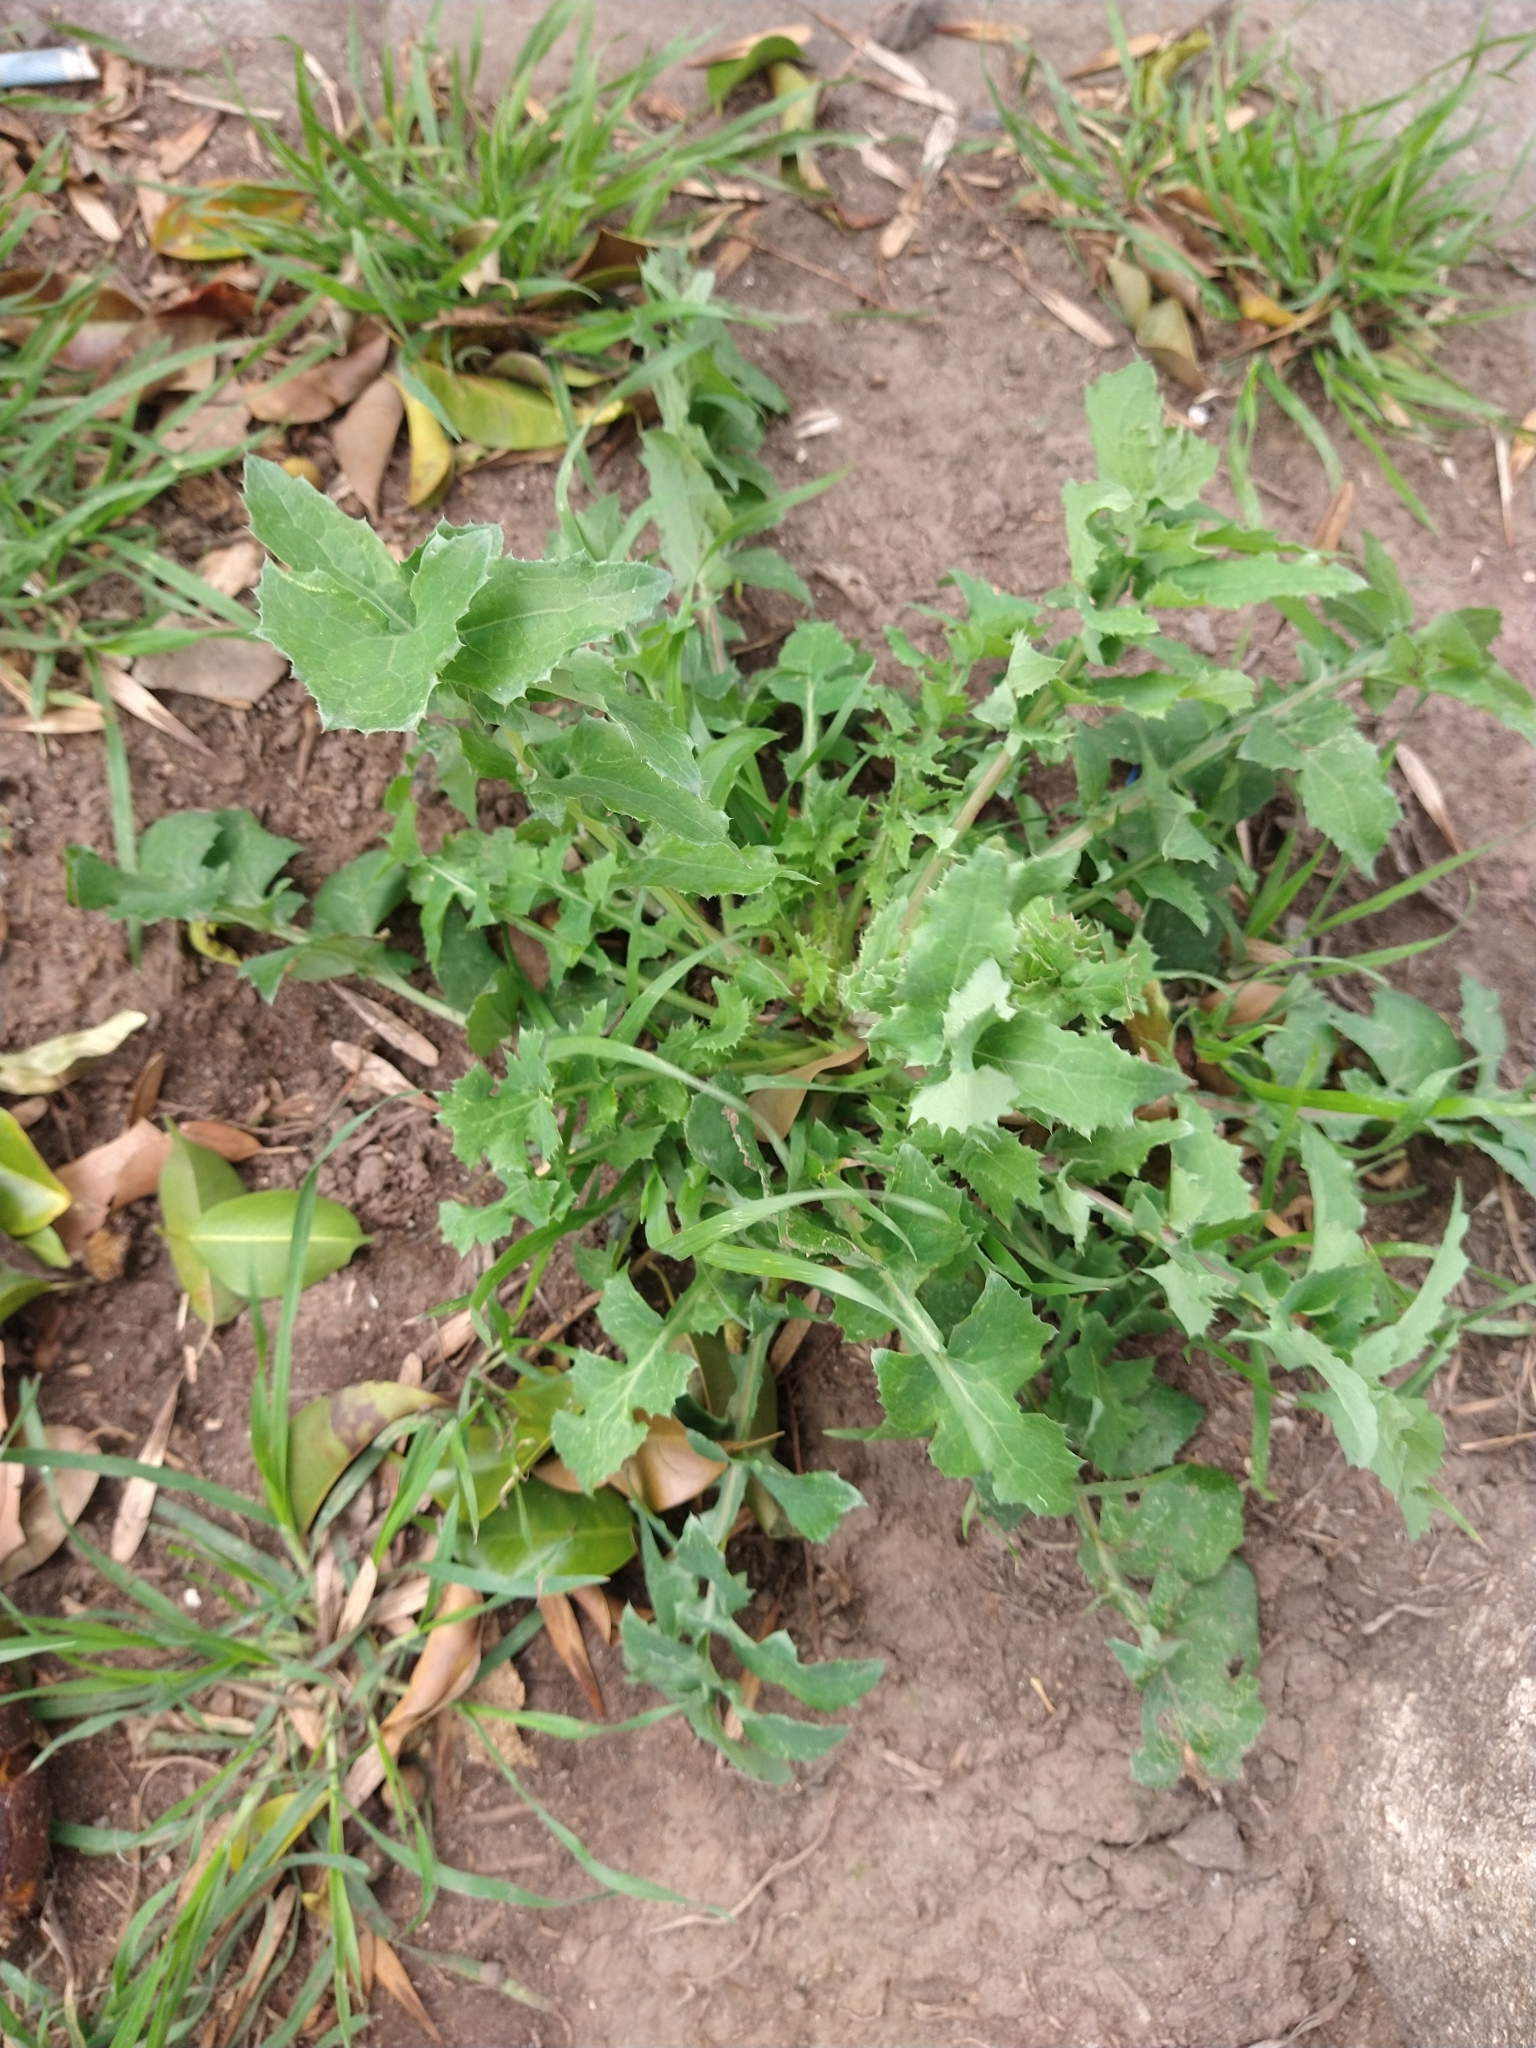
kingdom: Plantae
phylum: Tracheophyta
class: Magnoliopsida
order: Asterales
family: Asteraceae
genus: Sonchus
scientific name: Sonchus oleraceus
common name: Common sowthistle
